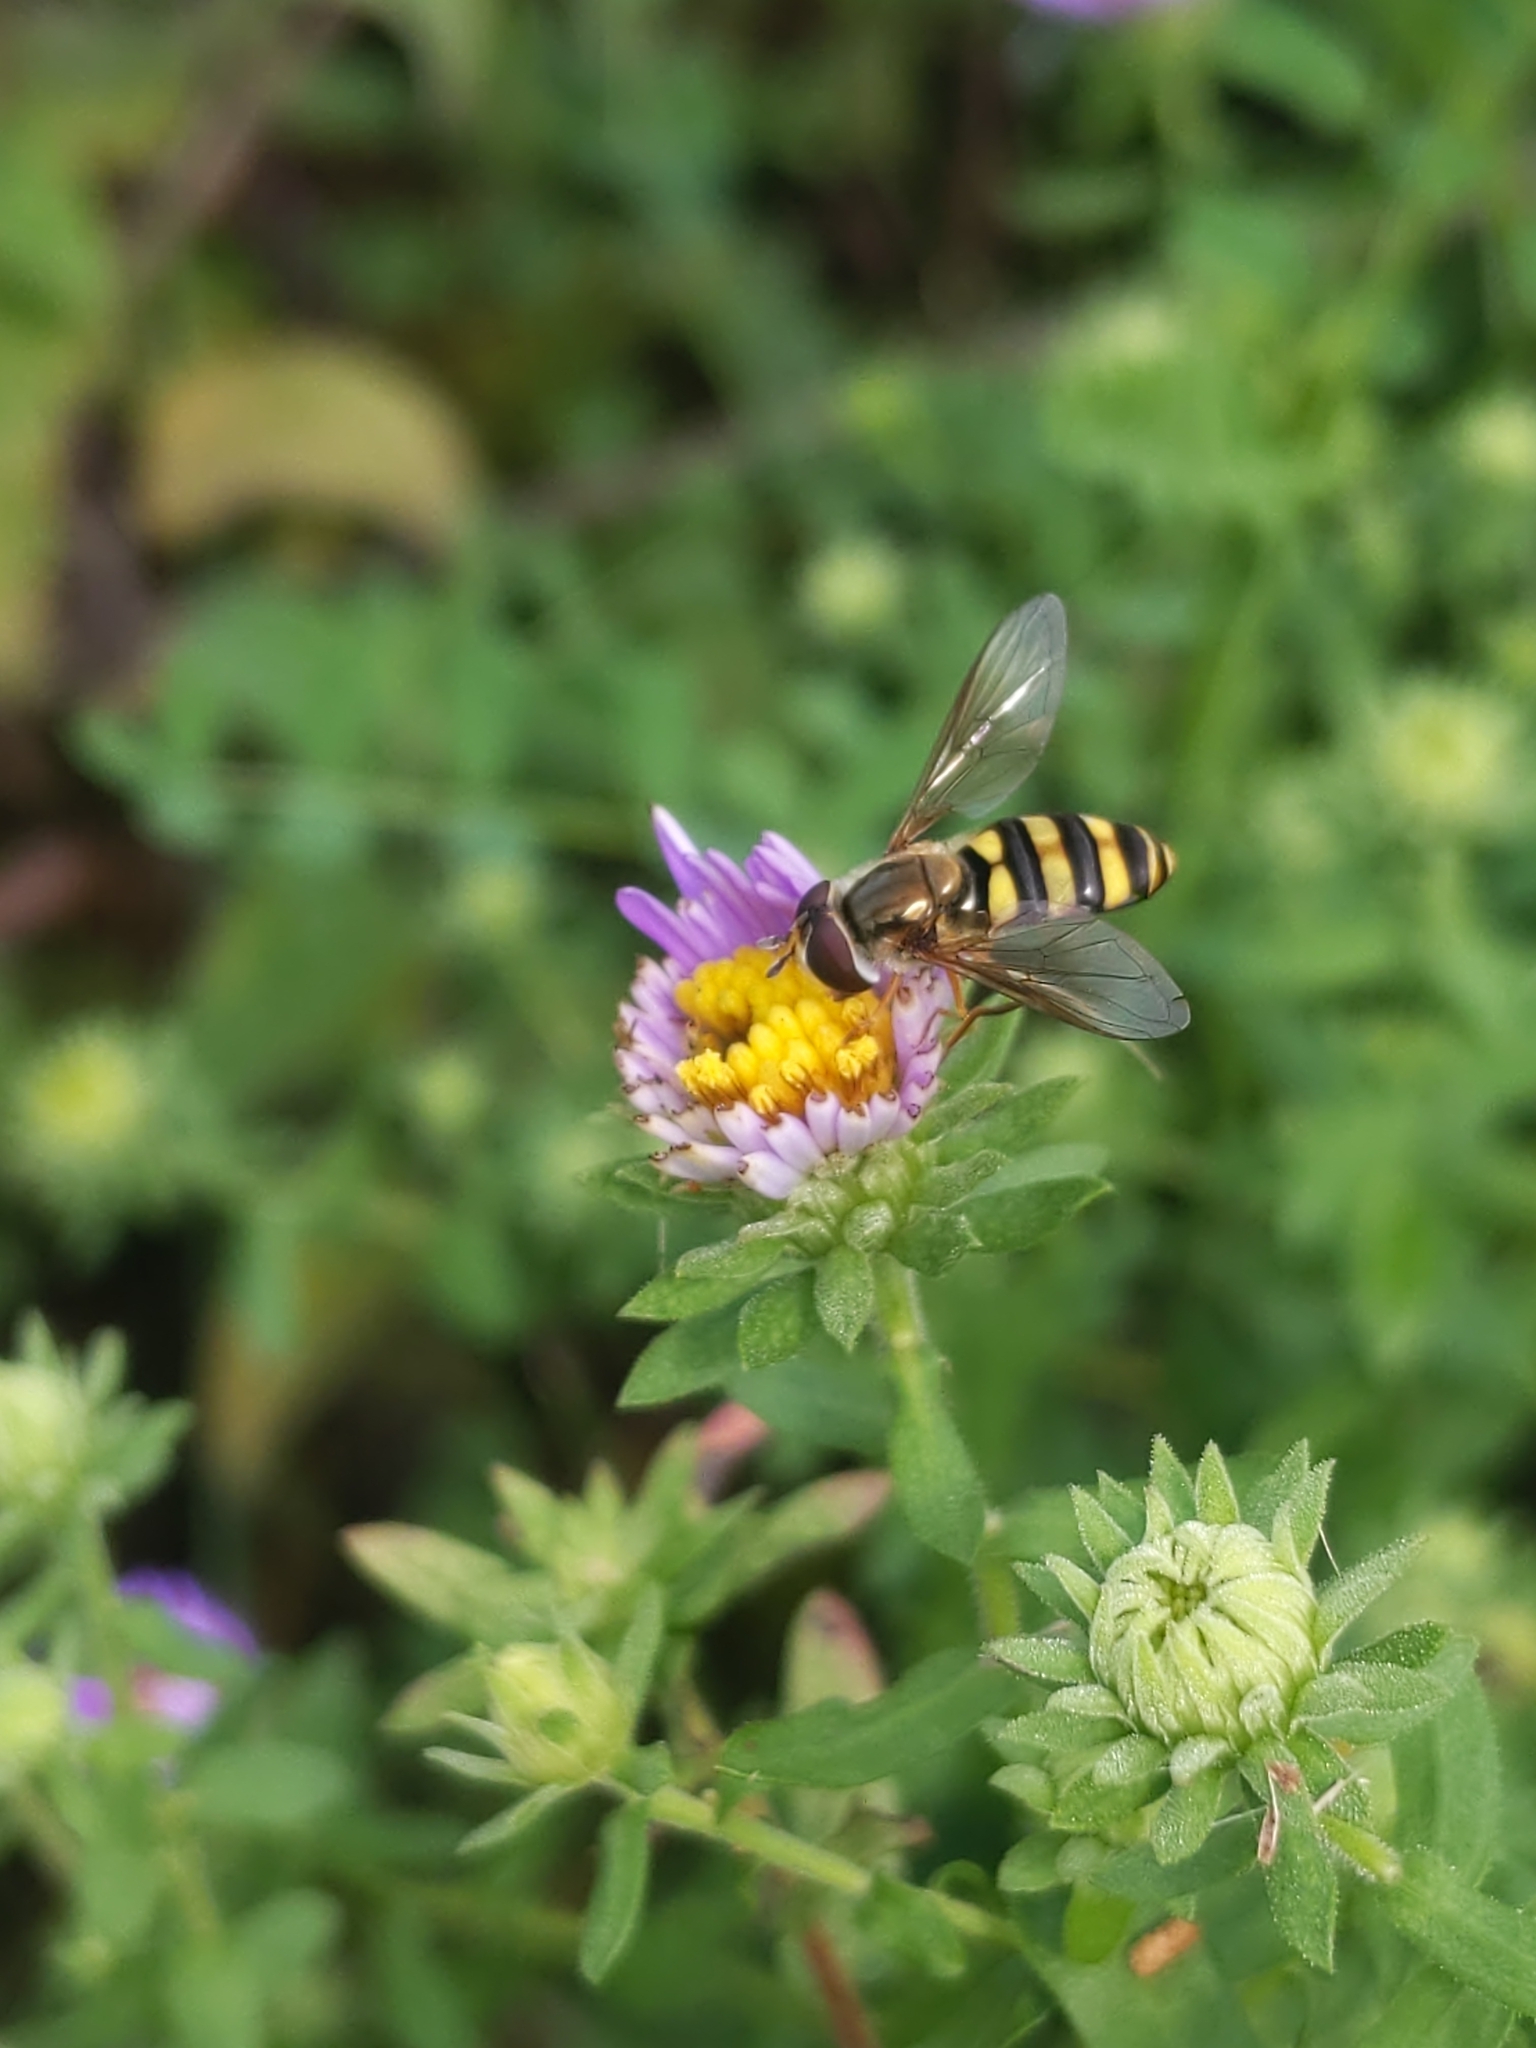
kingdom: Animalia
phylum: Arthropoda
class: Insecta
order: Diptera
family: Syrphidae
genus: Eupeodes
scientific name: Eupeodes
